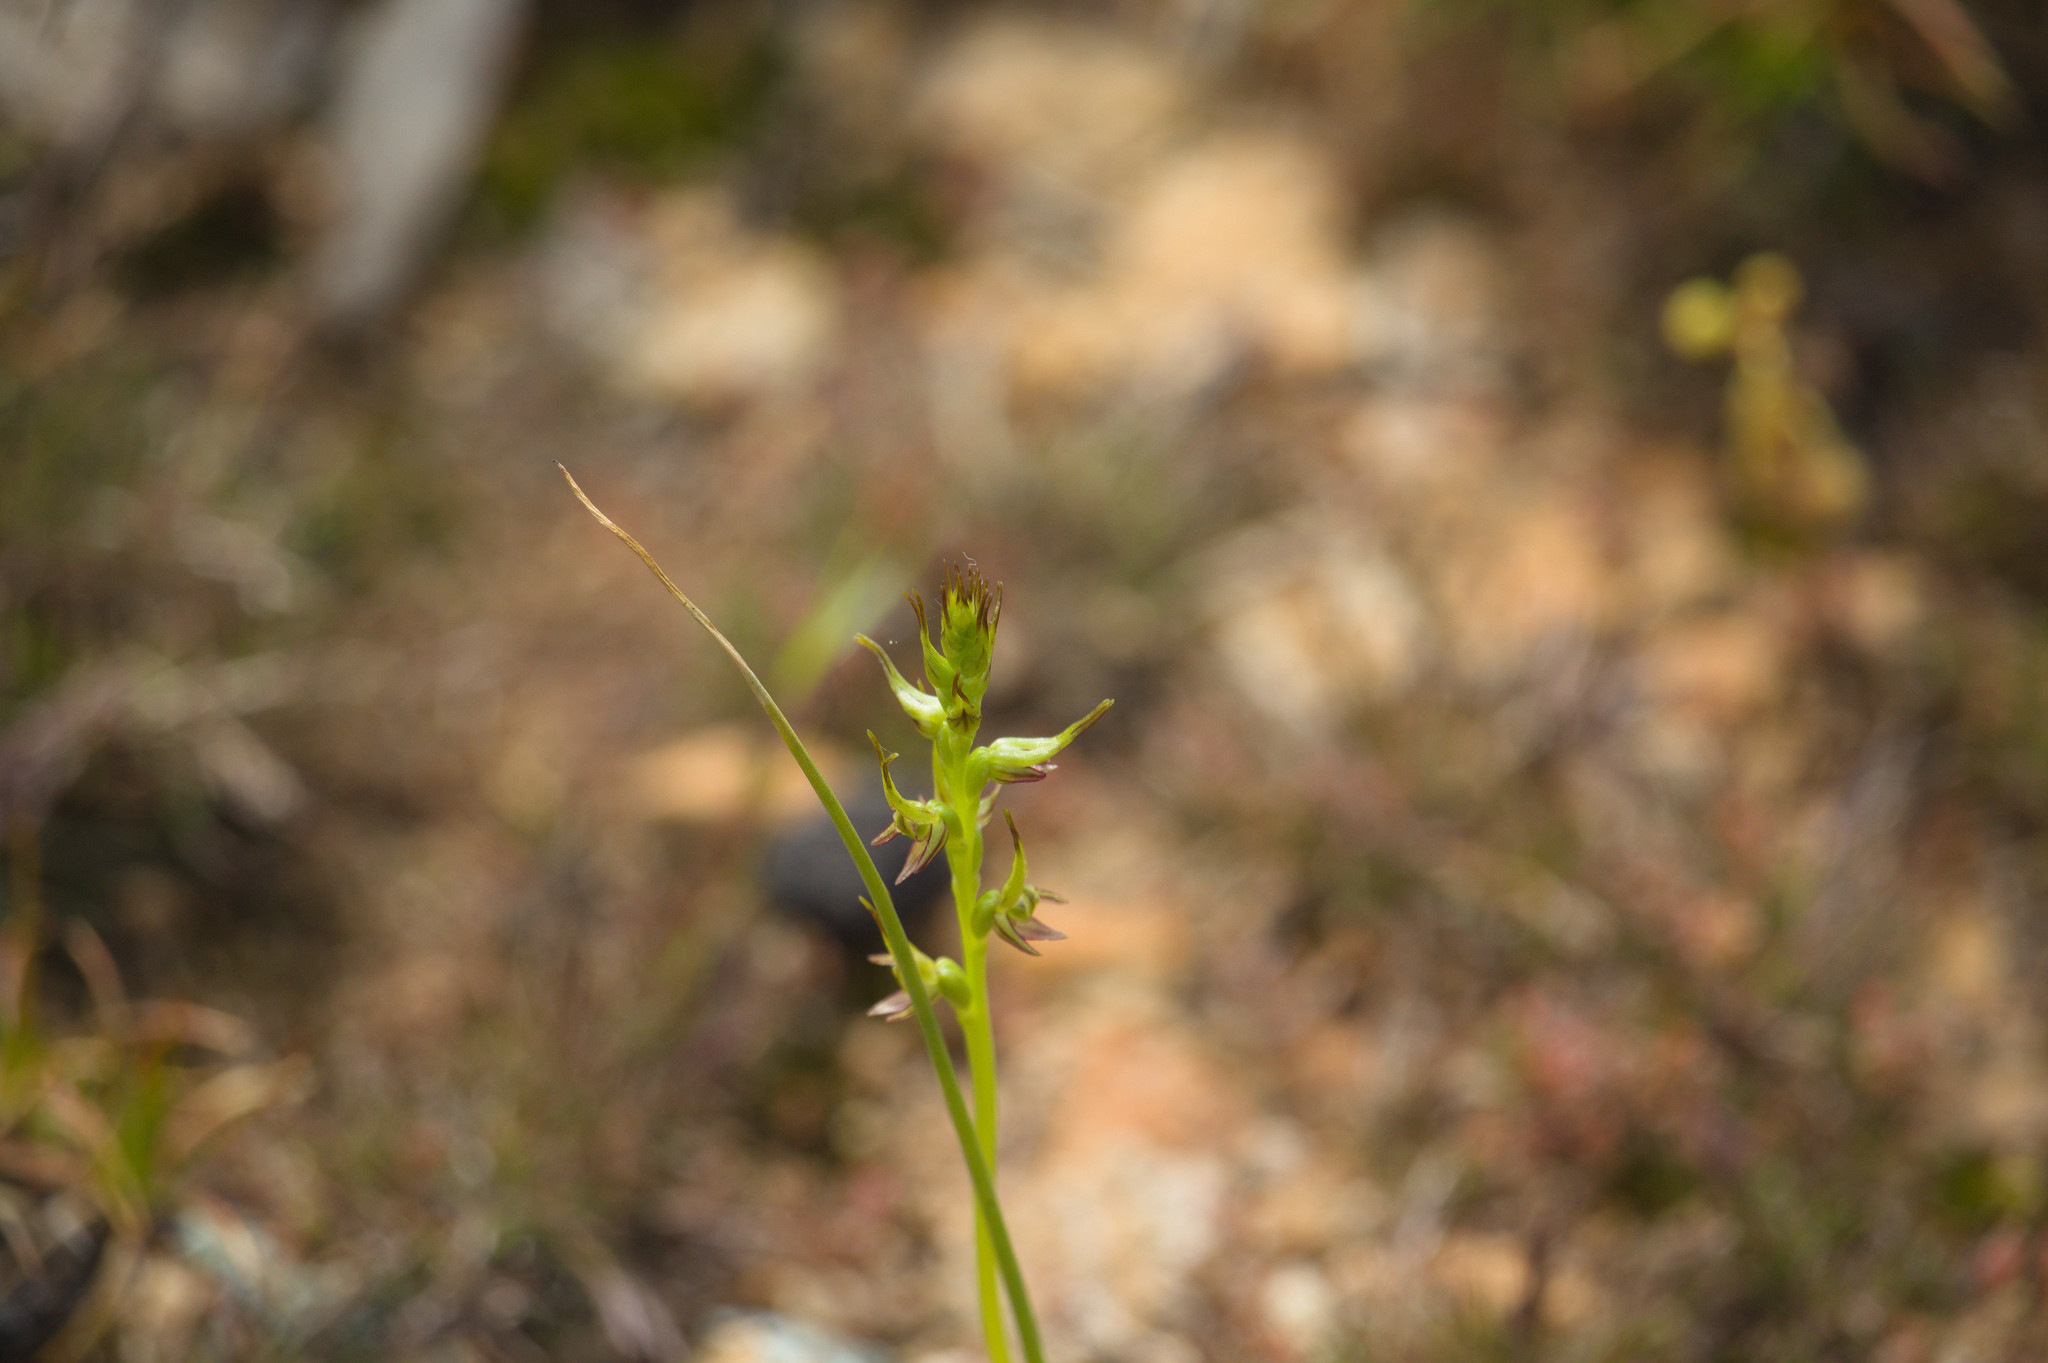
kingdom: Plantae
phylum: Tracheophyta
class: Liliopsida
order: Asparagales
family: Orchidaceae
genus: Prasophyllum
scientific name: Prasophyllum gracile
